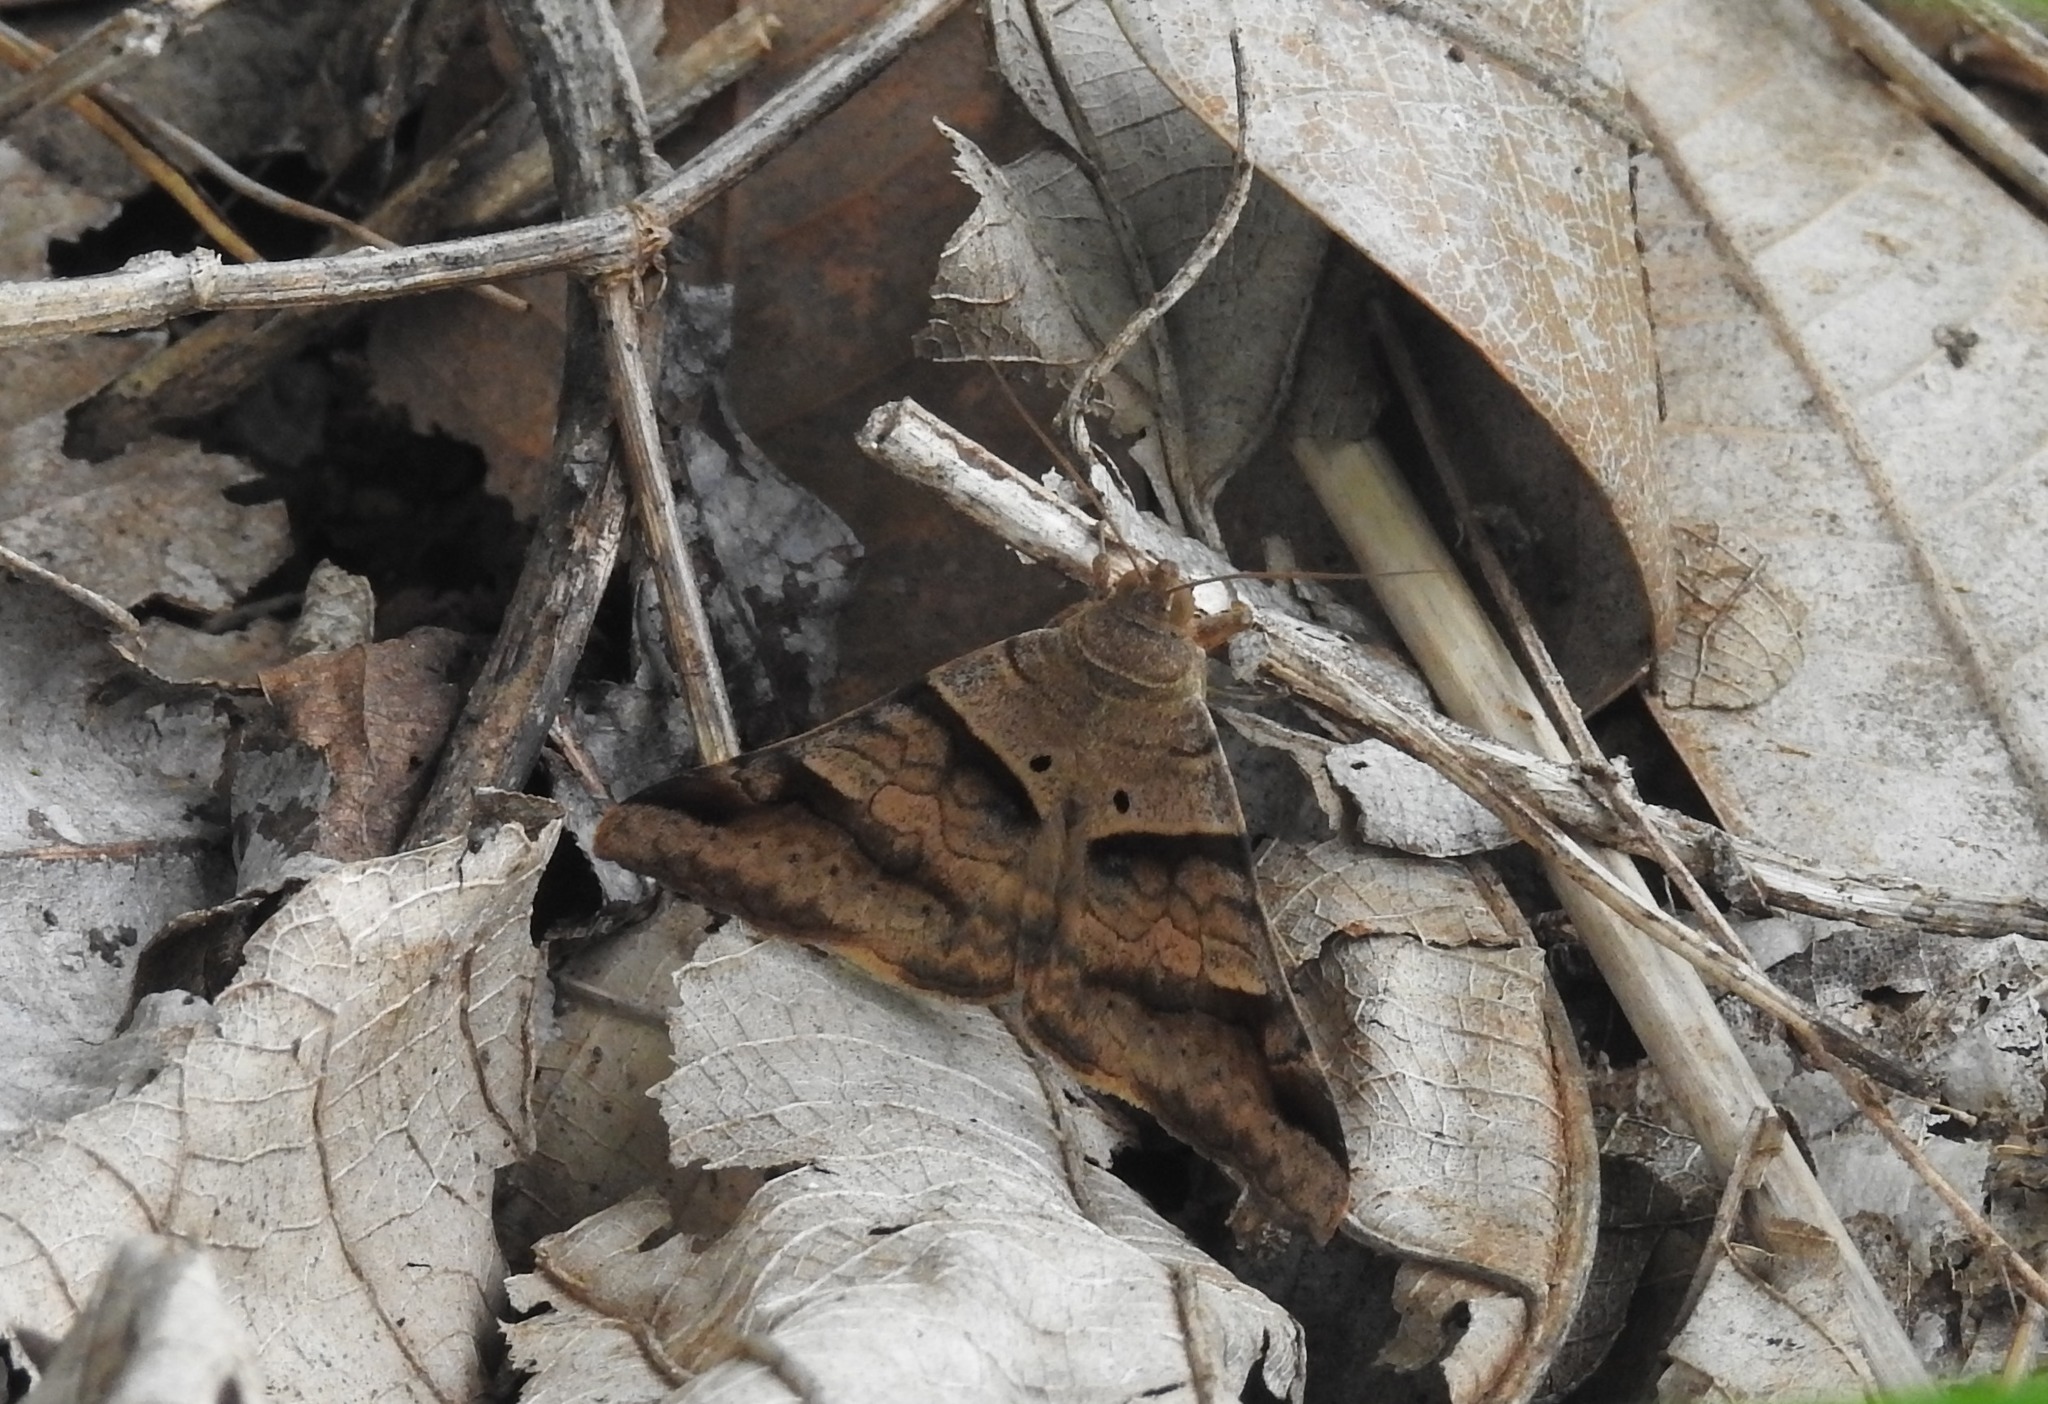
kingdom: Animalia
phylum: Arthropoda
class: Insecta
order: Lepidoptera
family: Erebidae
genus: Mocis
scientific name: Mocis undata
